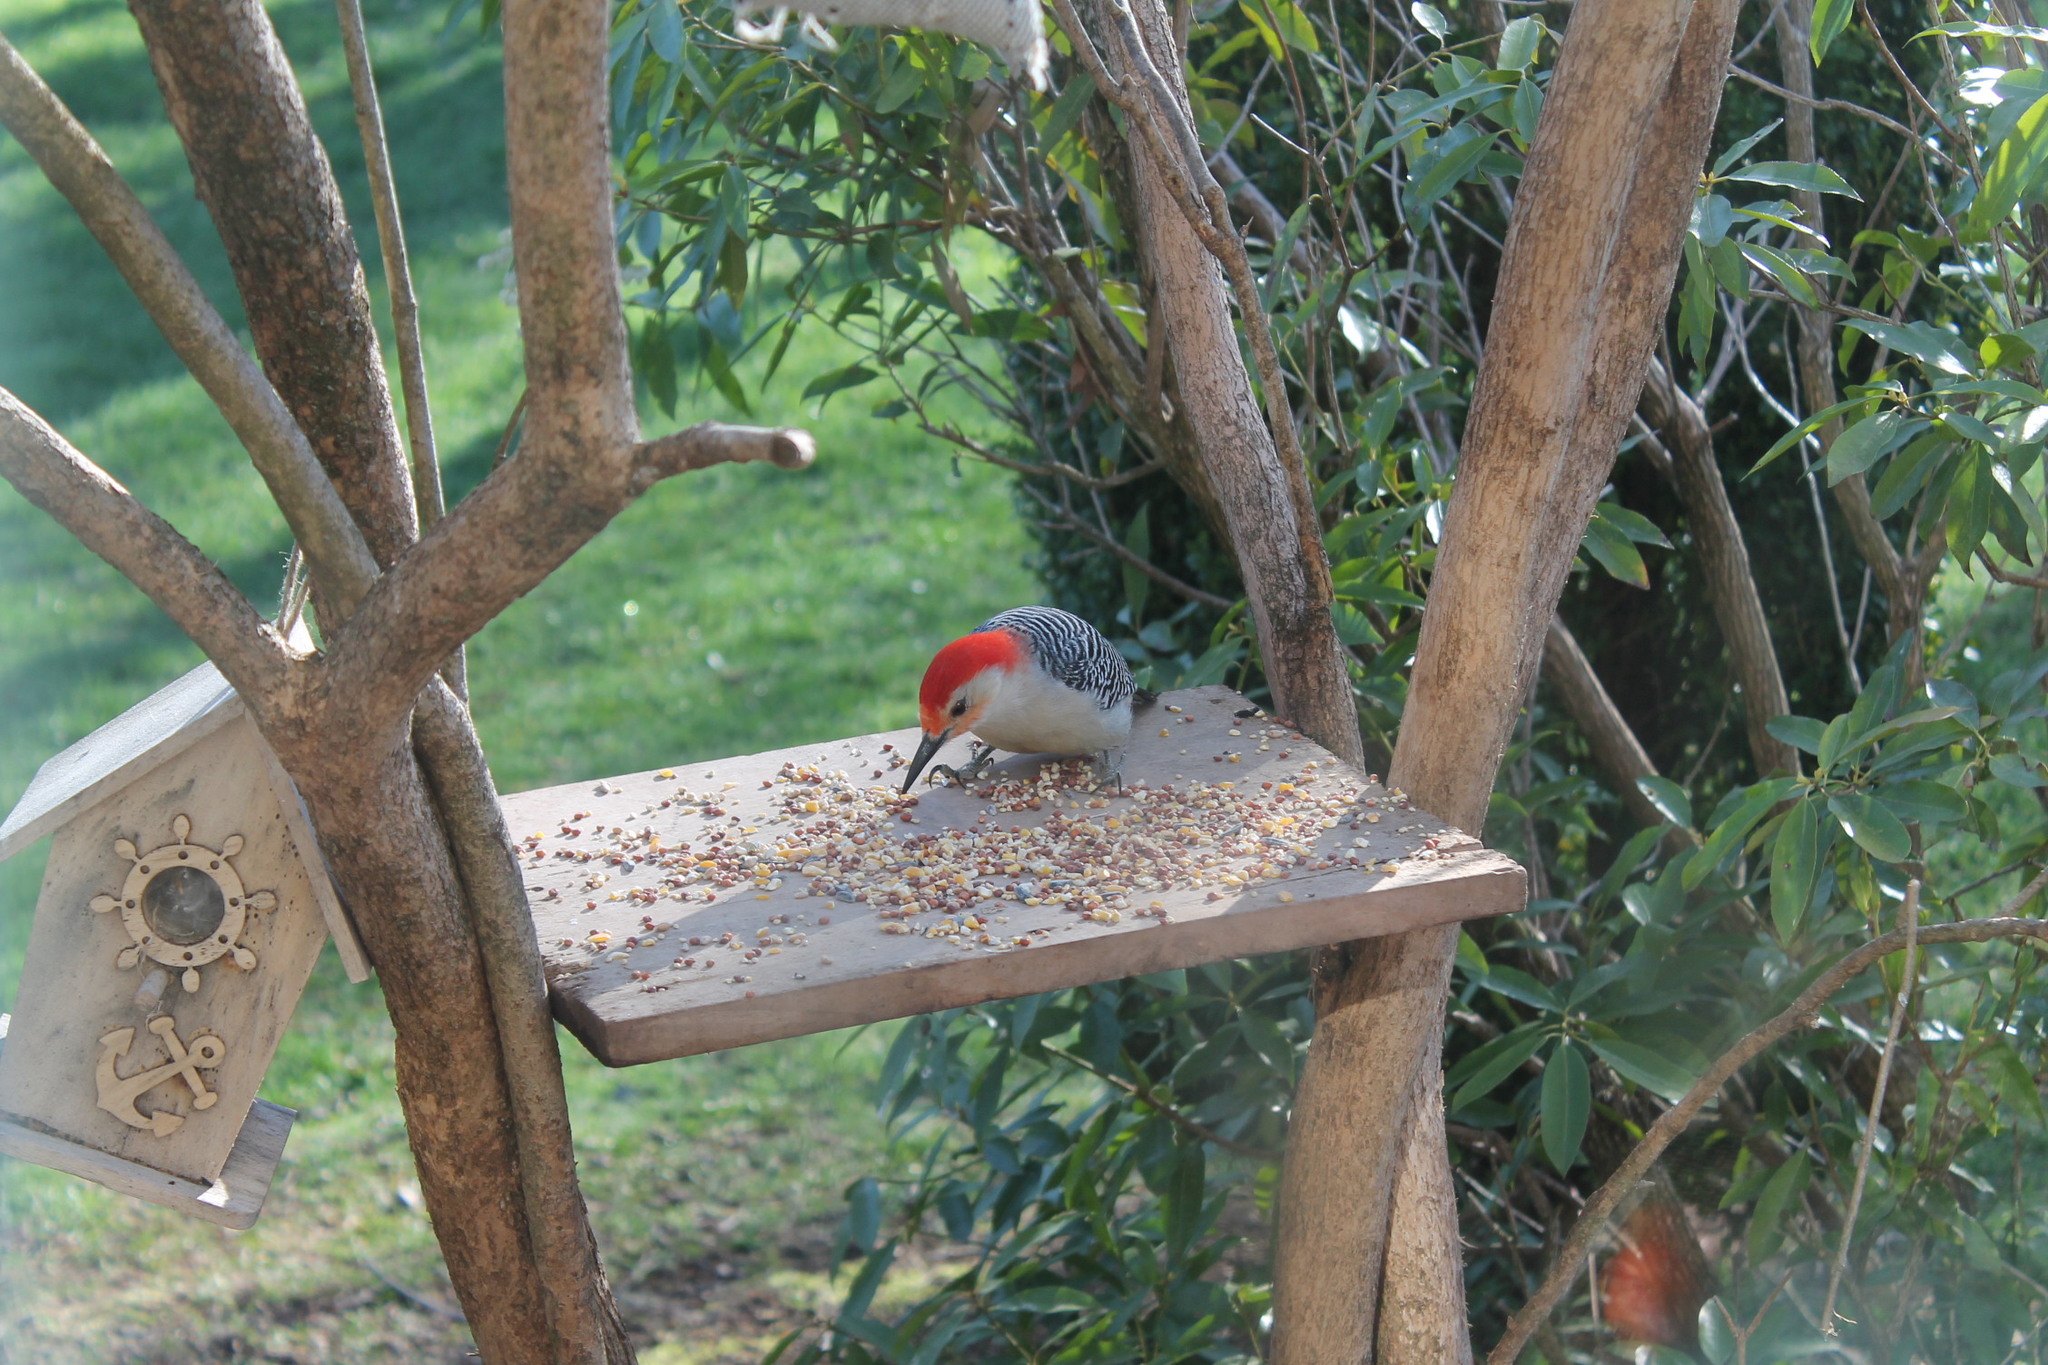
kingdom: Animalia
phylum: Chordata
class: Aves
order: Piciformes
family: Picidae
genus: Melanerpes
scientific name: Melanerpes carolinus
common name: Red-bellied woodpecker
